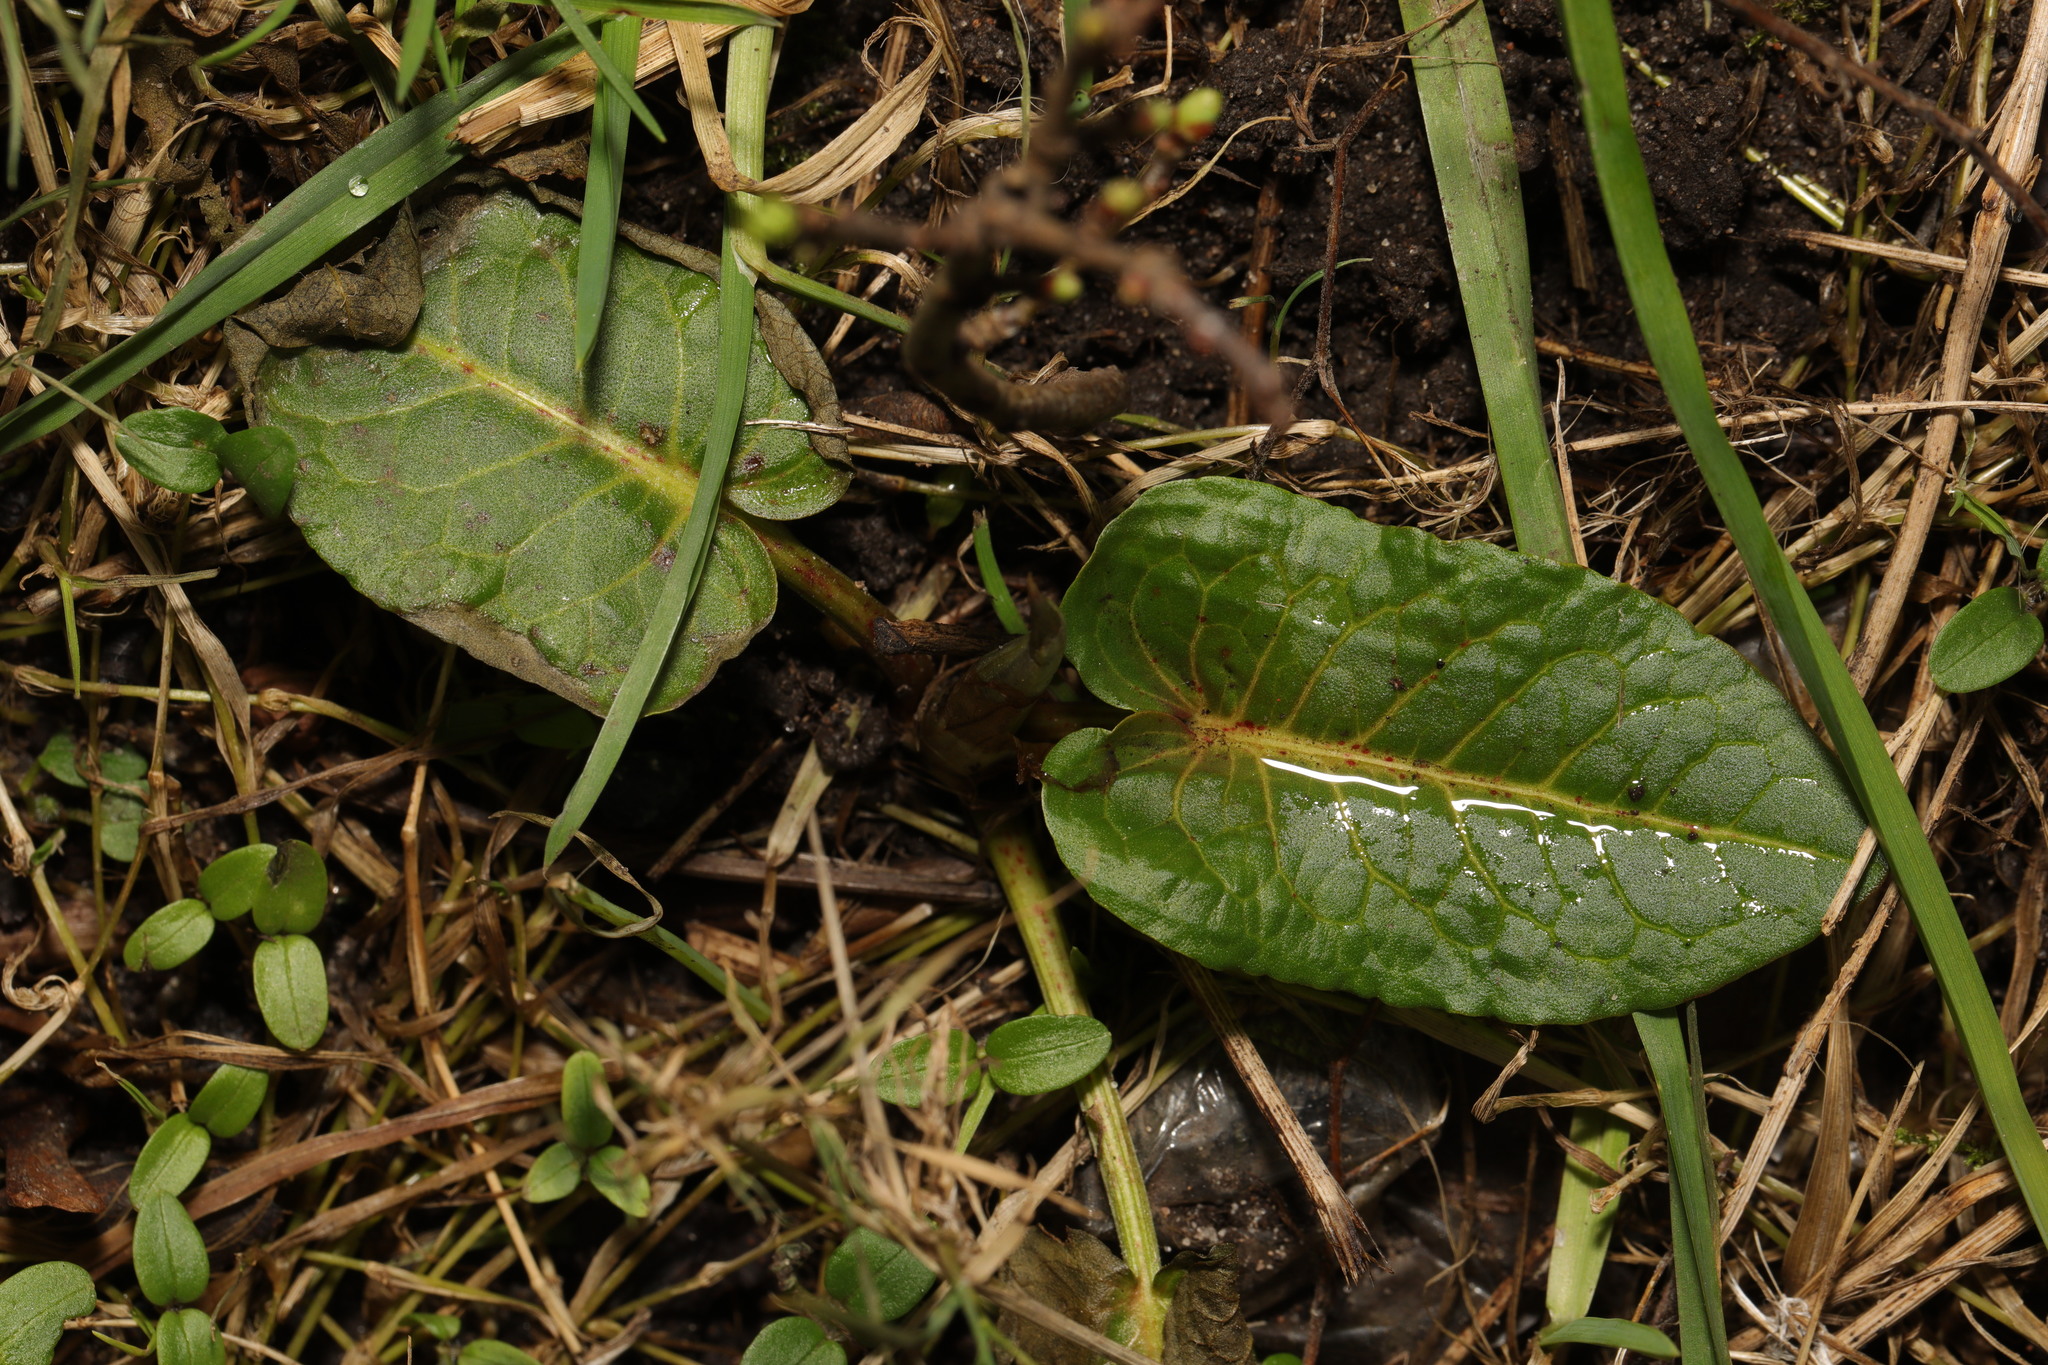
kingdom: Plantae
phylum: Tracheophyta
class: Magnoliopsida
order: Caryophyllales
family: Polygonaceae
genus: Rumex
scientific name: Rumex obtusifolius
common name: Bitter dock
